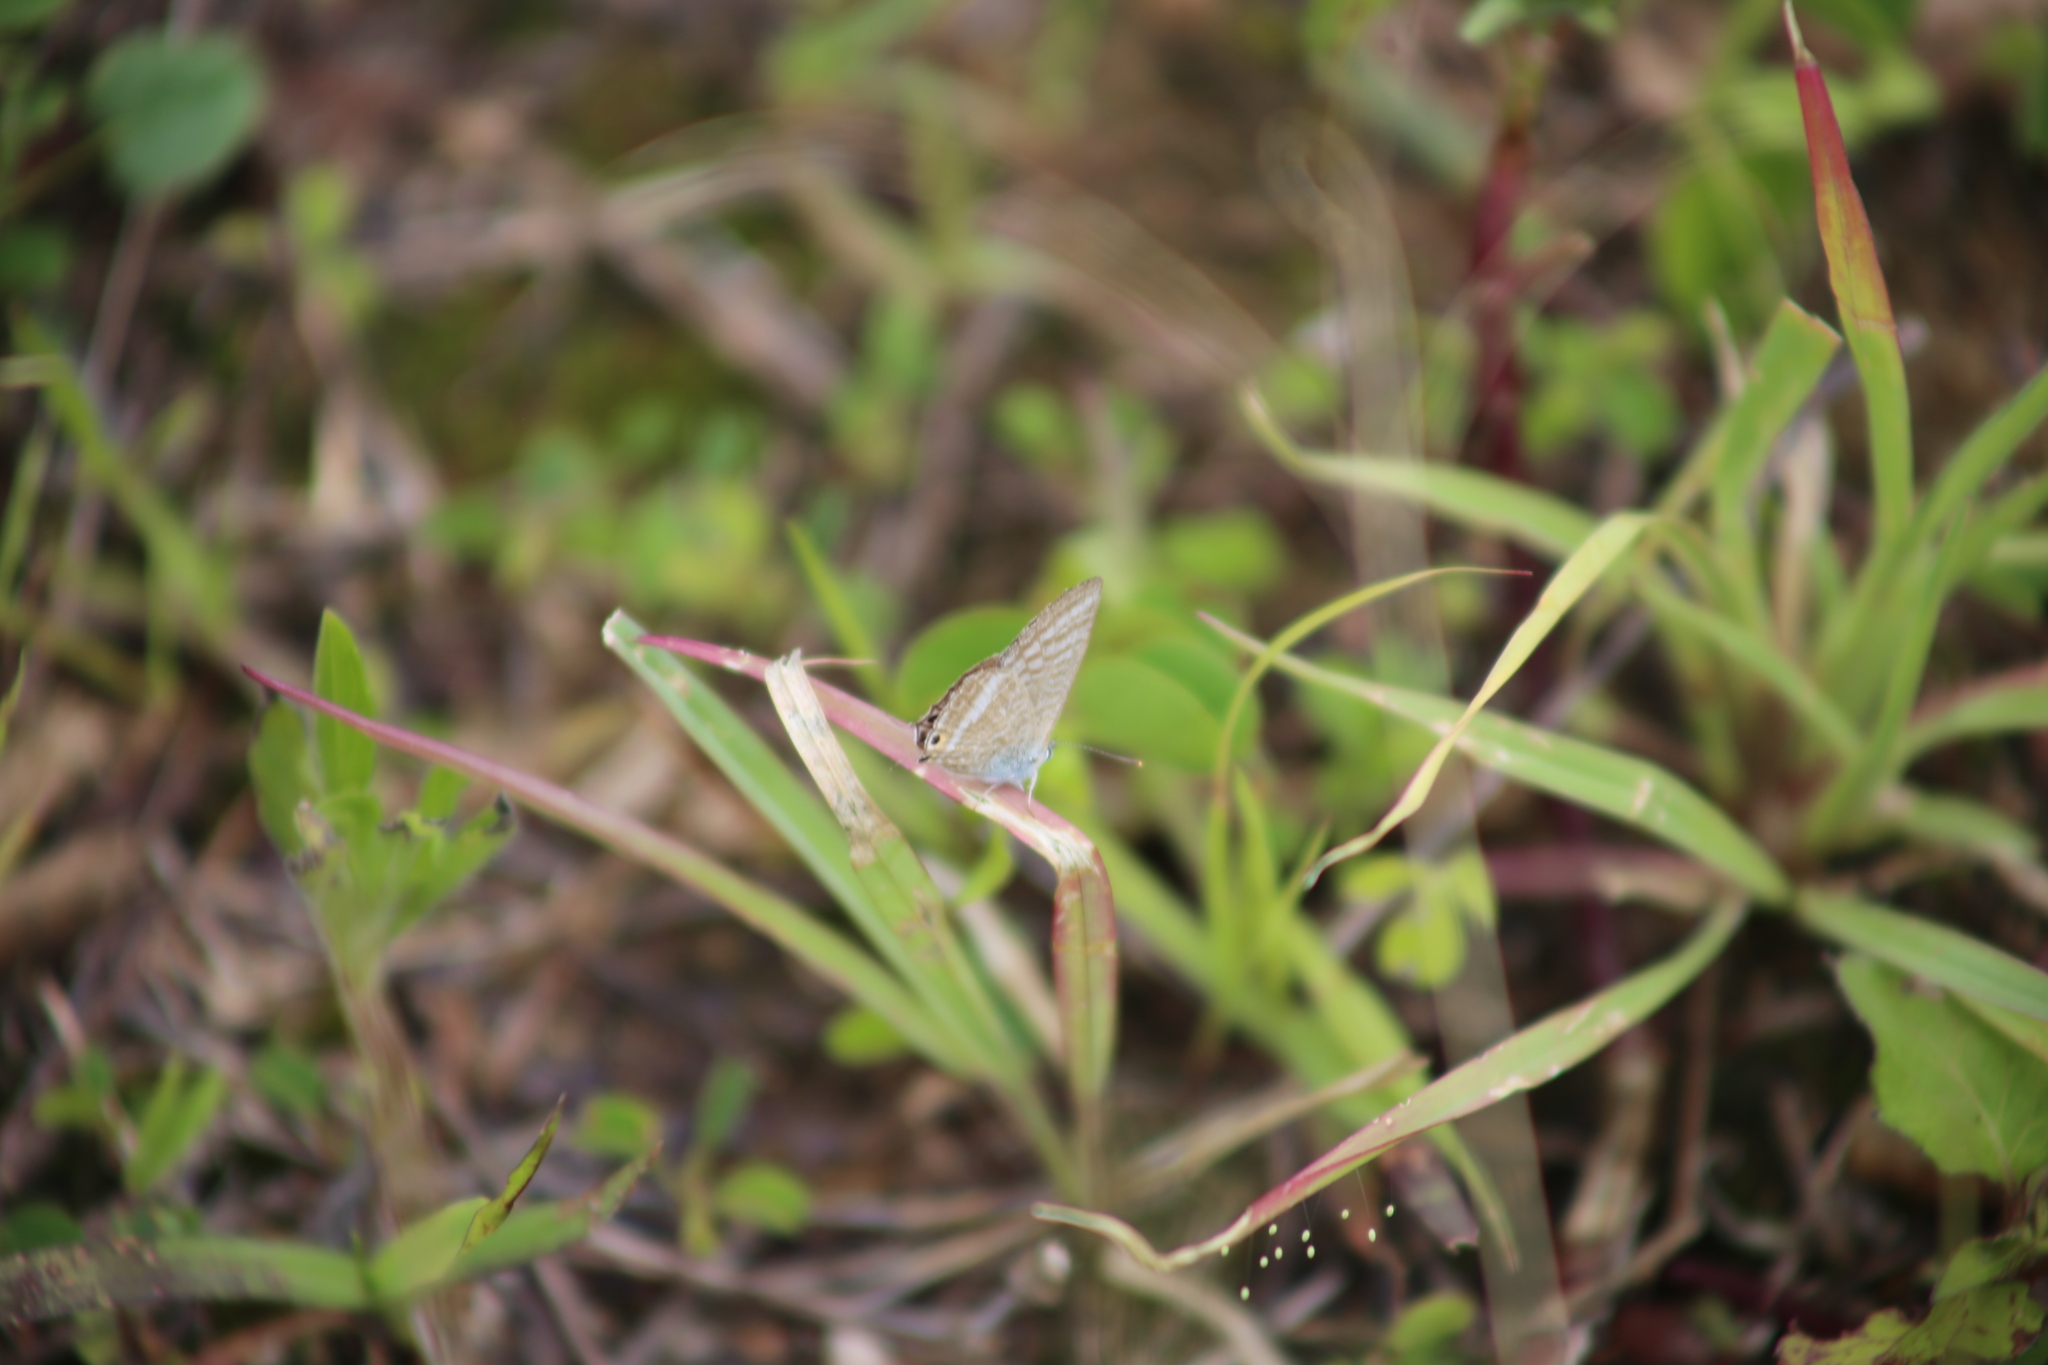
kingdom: Animalia
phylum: Arthropoda
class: Insecta
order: Lepidoptera
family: Lycaenidae
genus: Lampides
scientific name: Lampides boeticus
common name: Long-tailed blue
